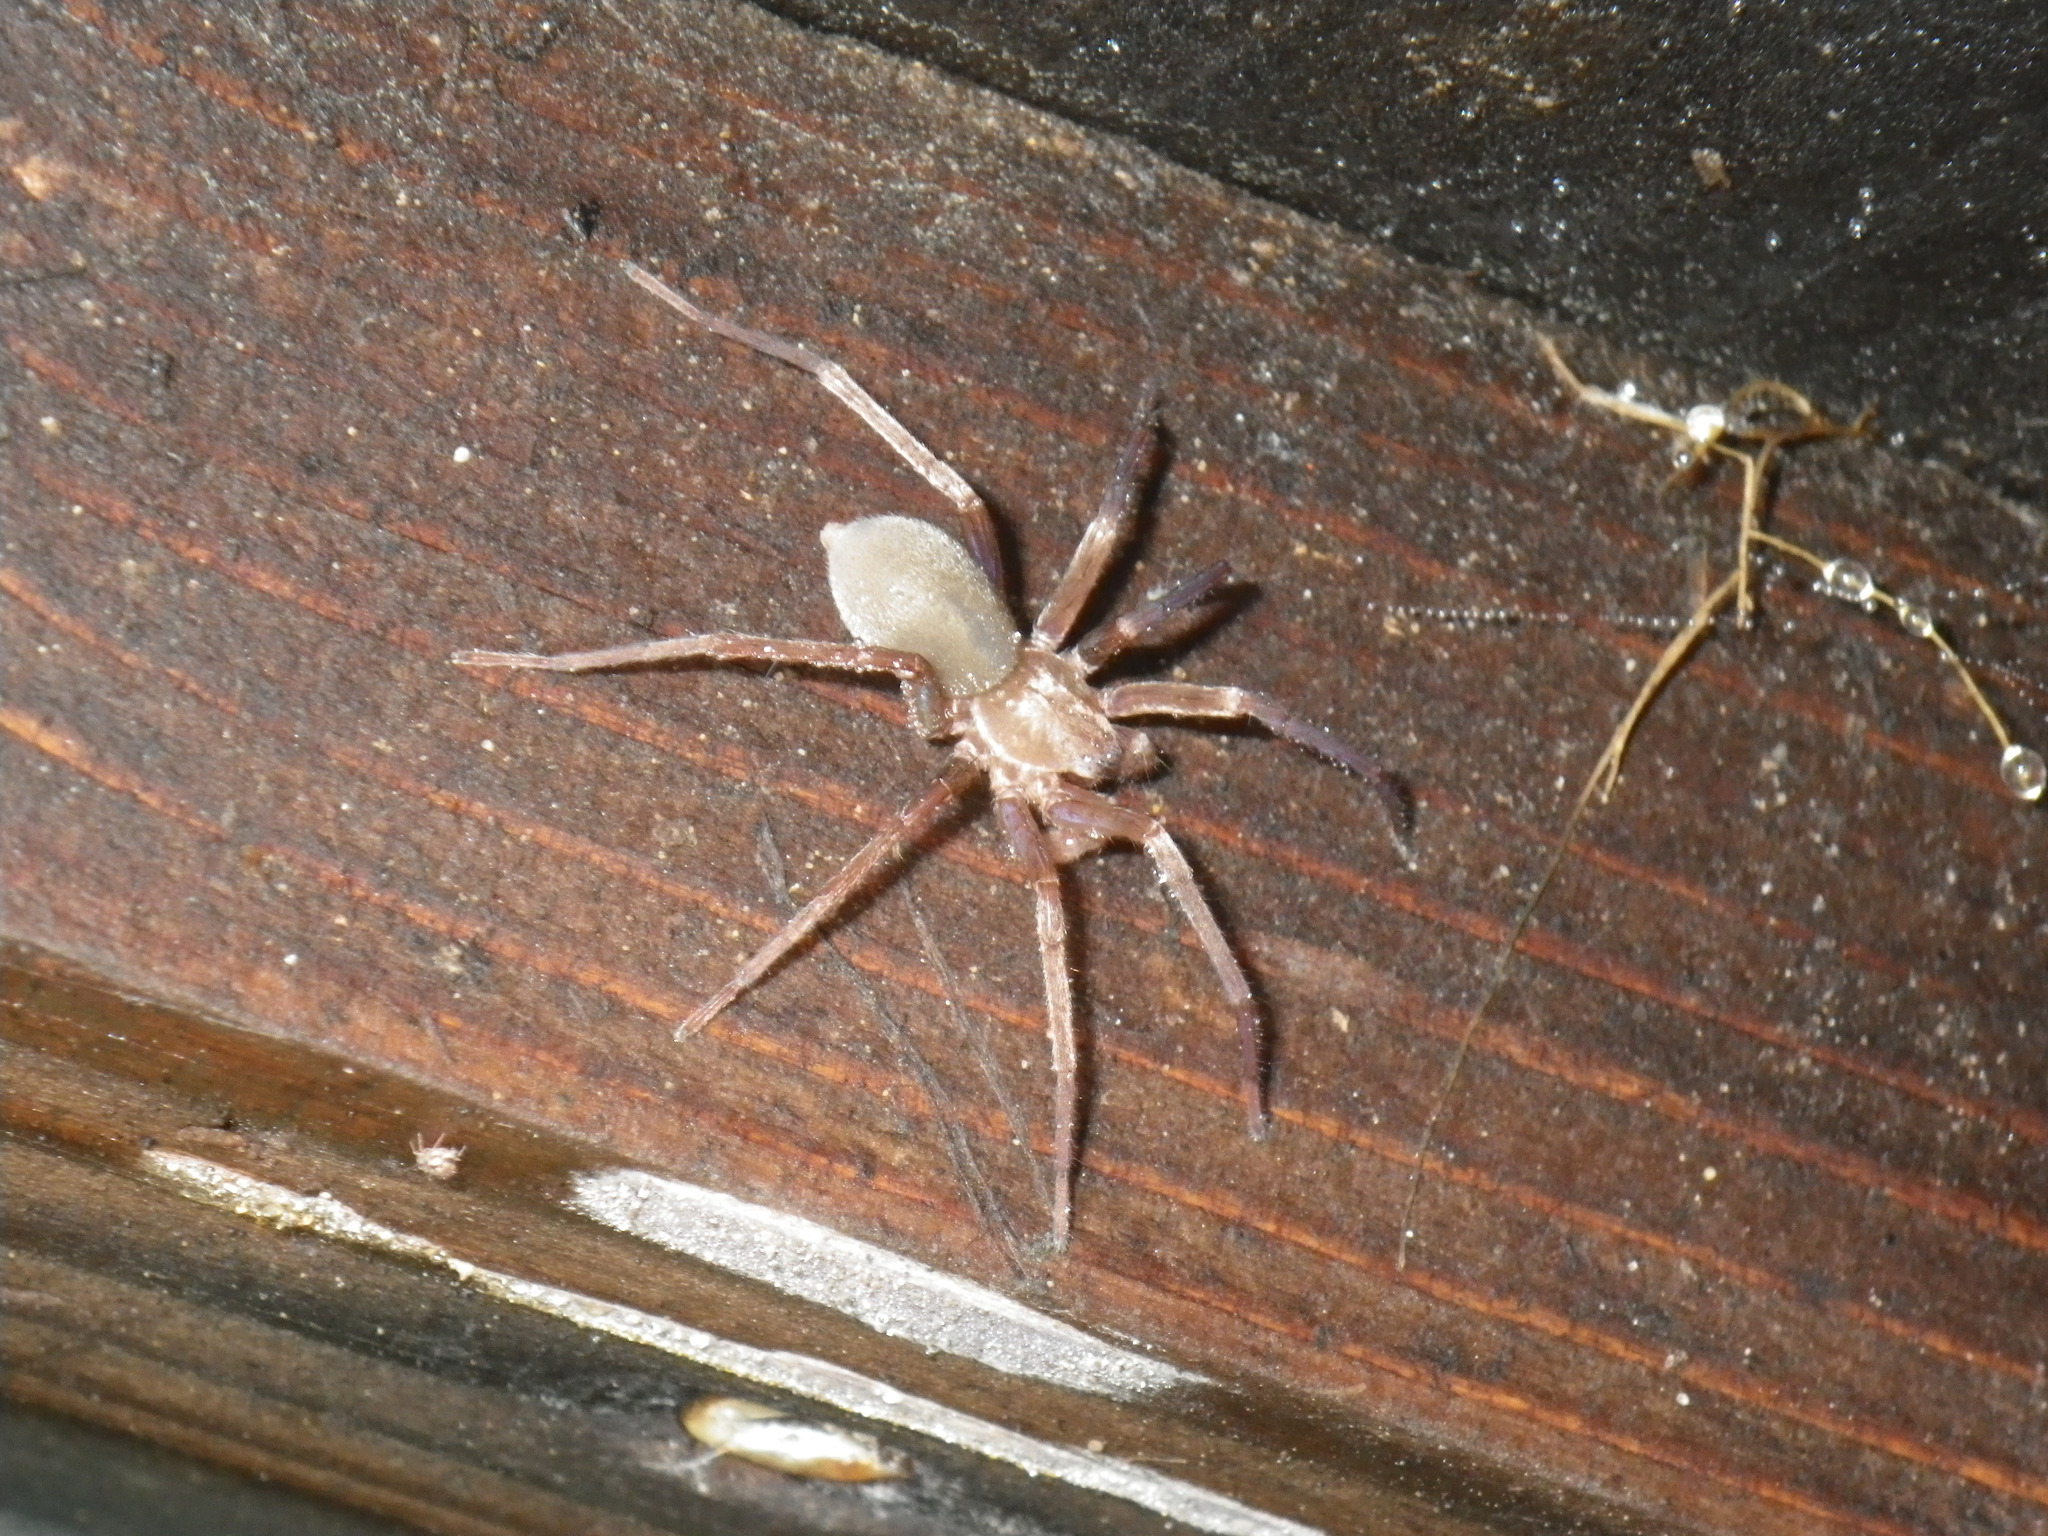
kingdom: Animalia
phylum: Arthropoda
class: Arachnida
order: Araneae
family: Zoropsidae
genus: Titiotus
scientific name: Titiotus
